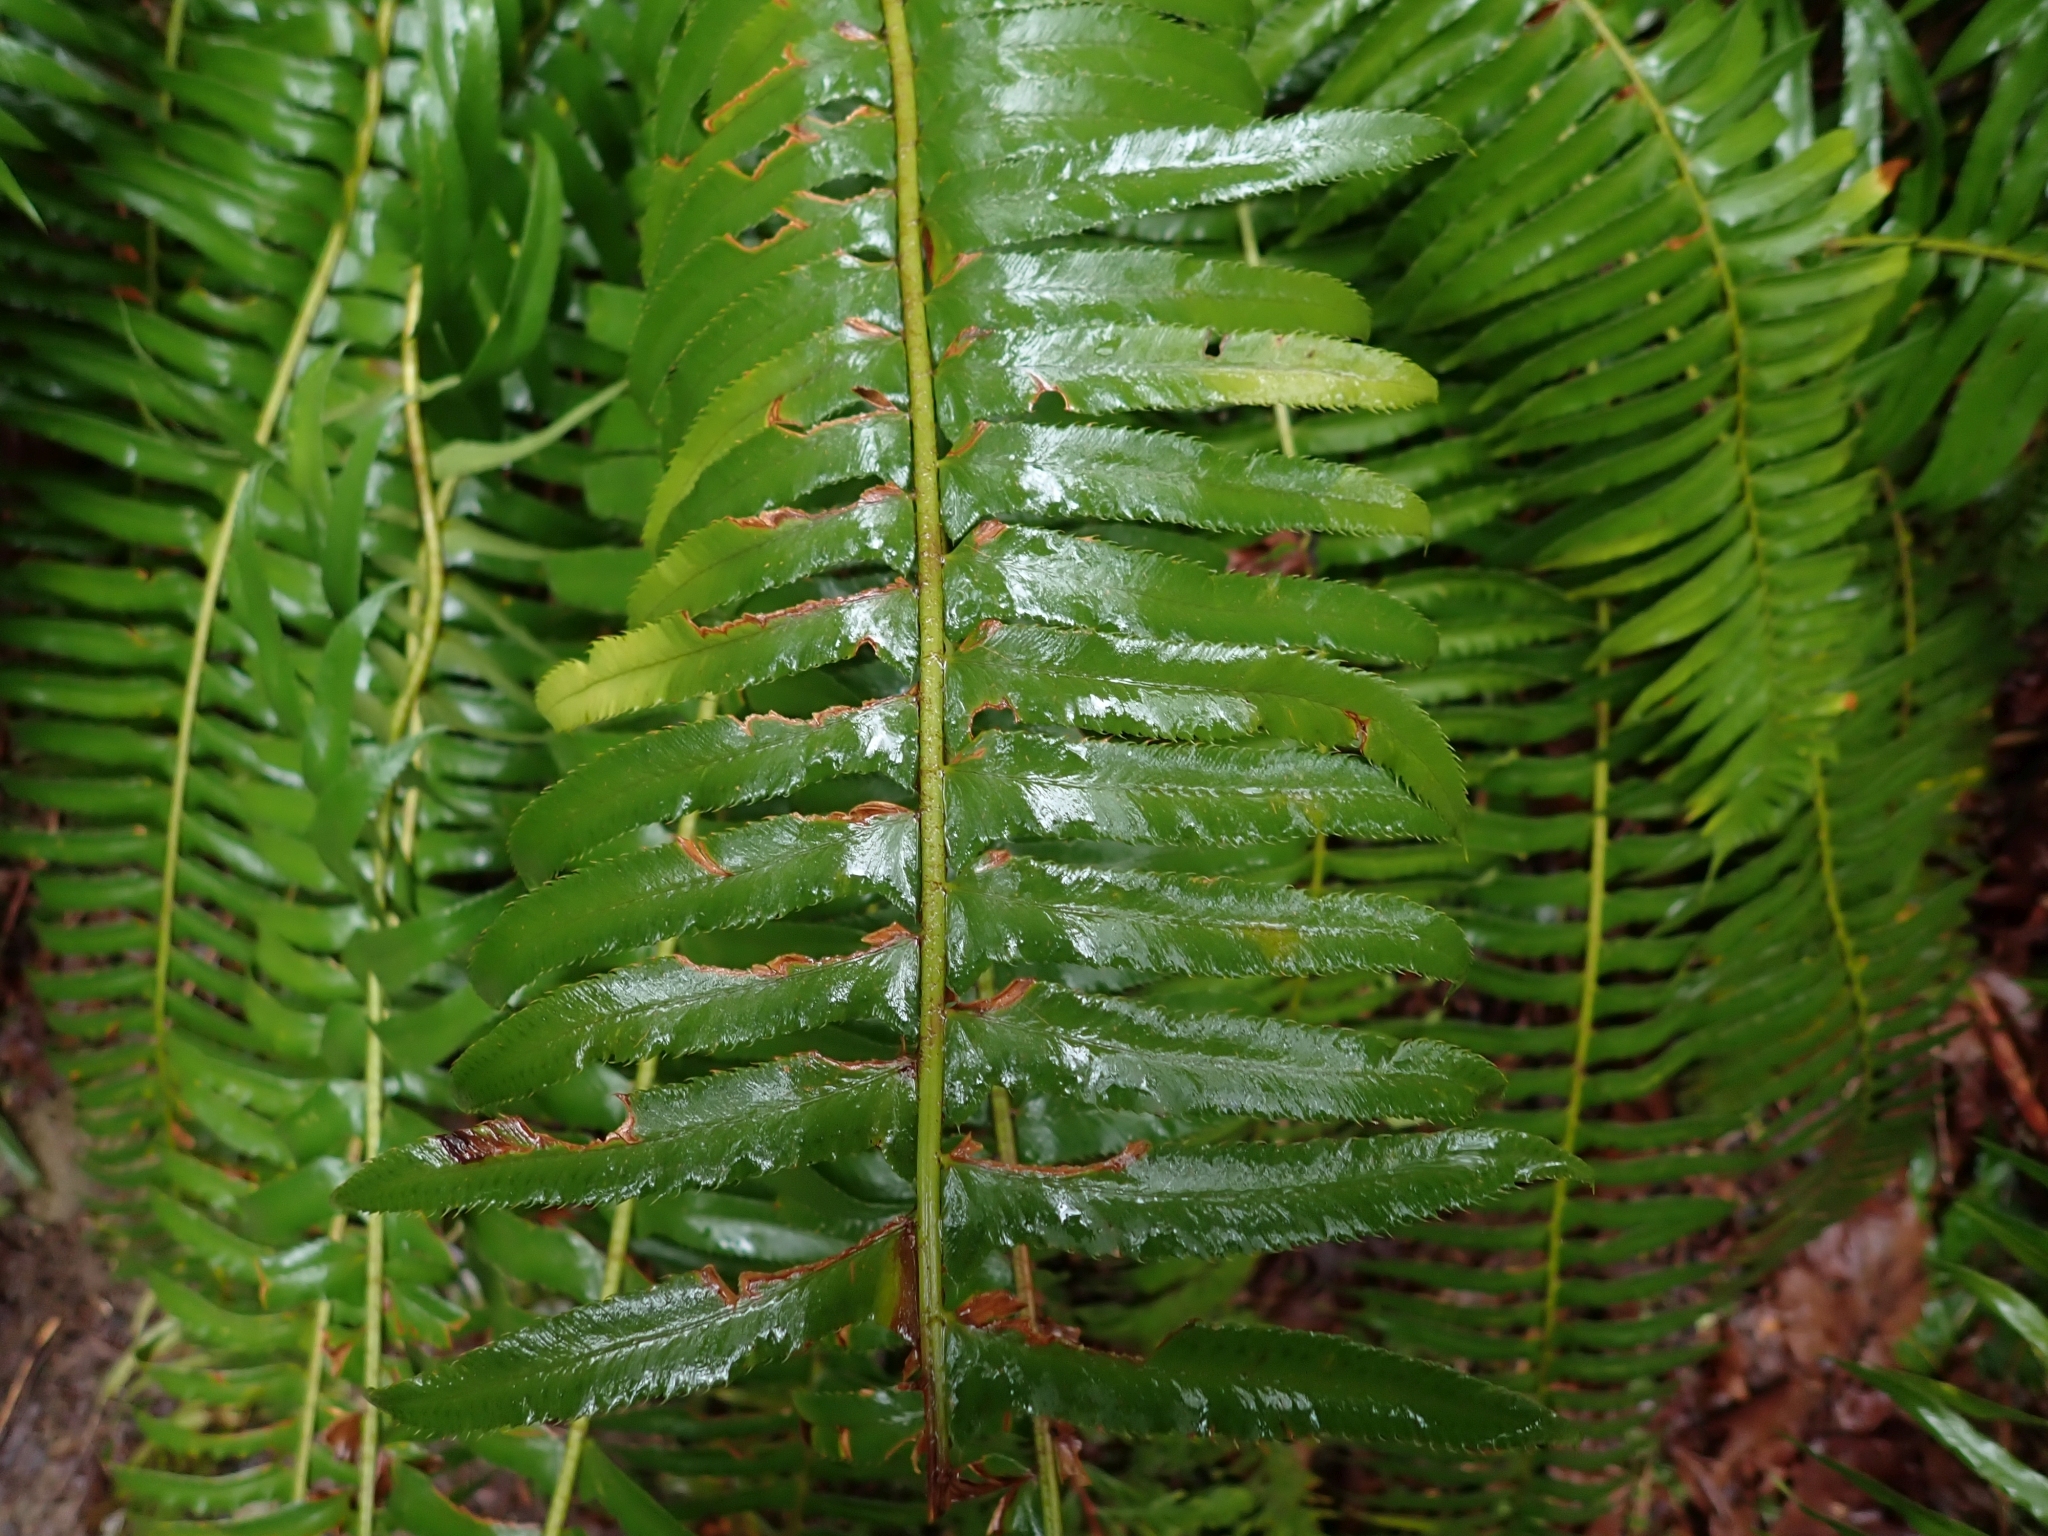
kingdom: Plantae
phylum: Tracheophyta
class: Polypodiopsida
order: Polypodiales
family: Dryopteridaceae
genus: Polystichum
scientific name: Polystichum munitum
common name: Western sword-fern
